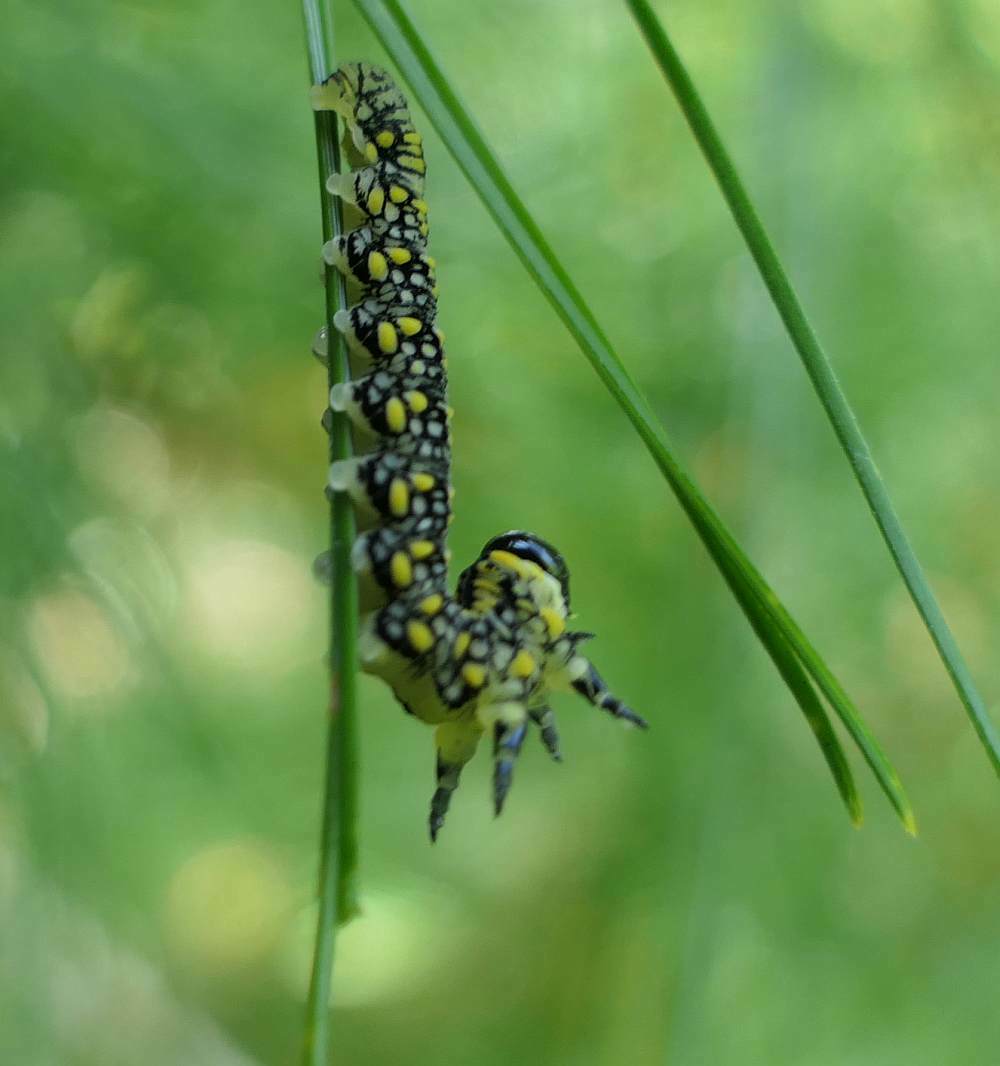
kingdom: Animalia
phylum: Arthropoda
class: Insecta
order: Hymenoptera
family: Diprionidae
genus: Diprion
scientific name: Diprion similis
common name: Pine sawfly
